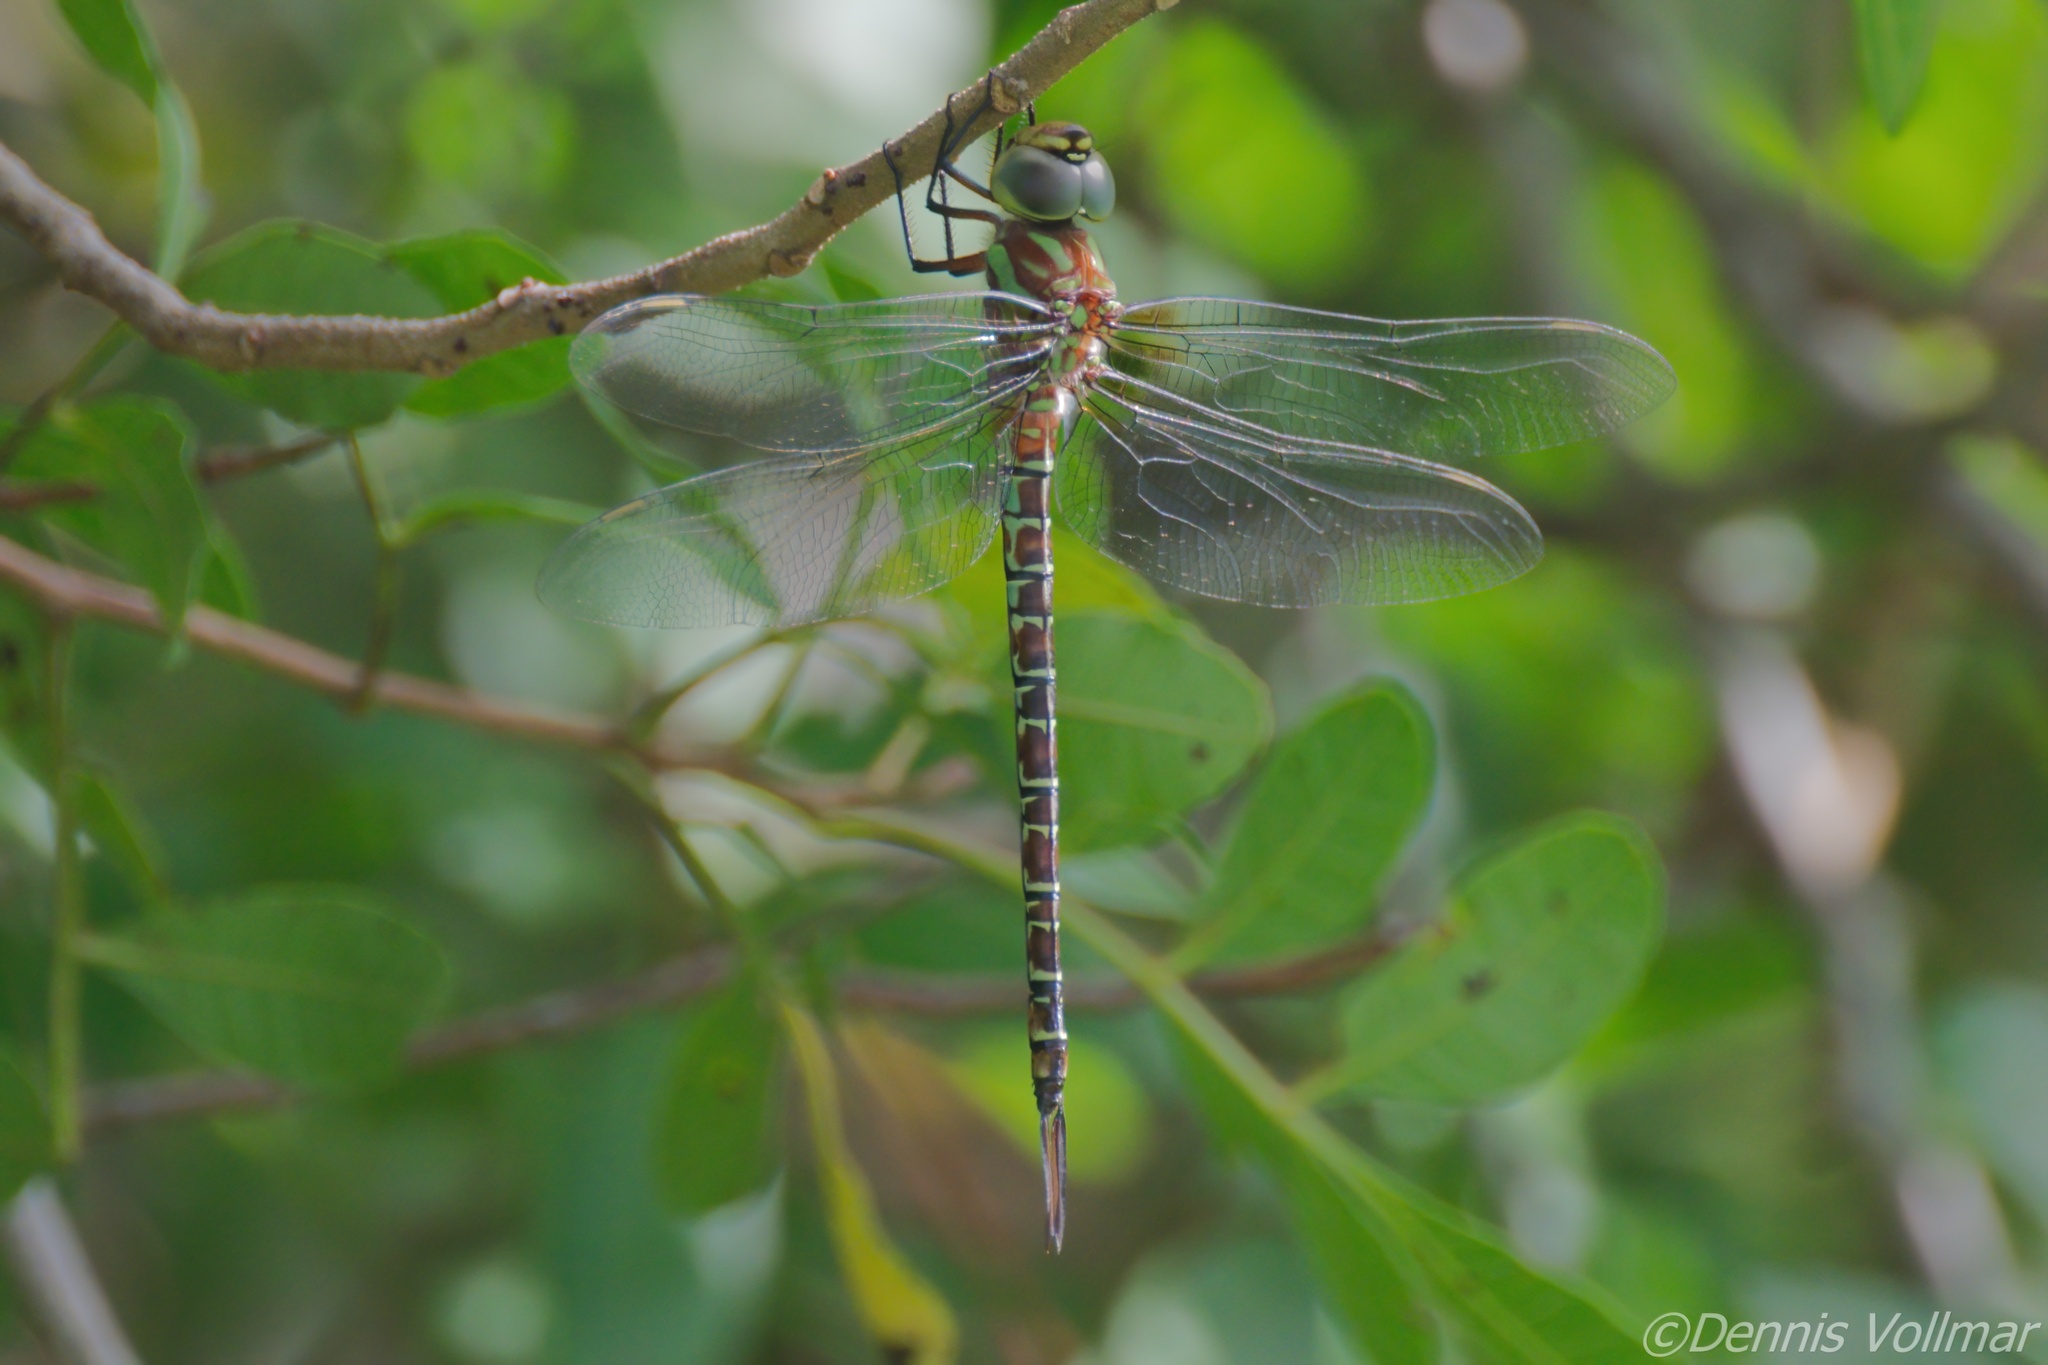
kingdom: Animalia
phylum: Arthropoda
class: Insecta
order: Odonata
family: Aeshnidae
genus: Coryphaeschna
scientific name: Coryphaeschna ingens
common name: Regal darner
